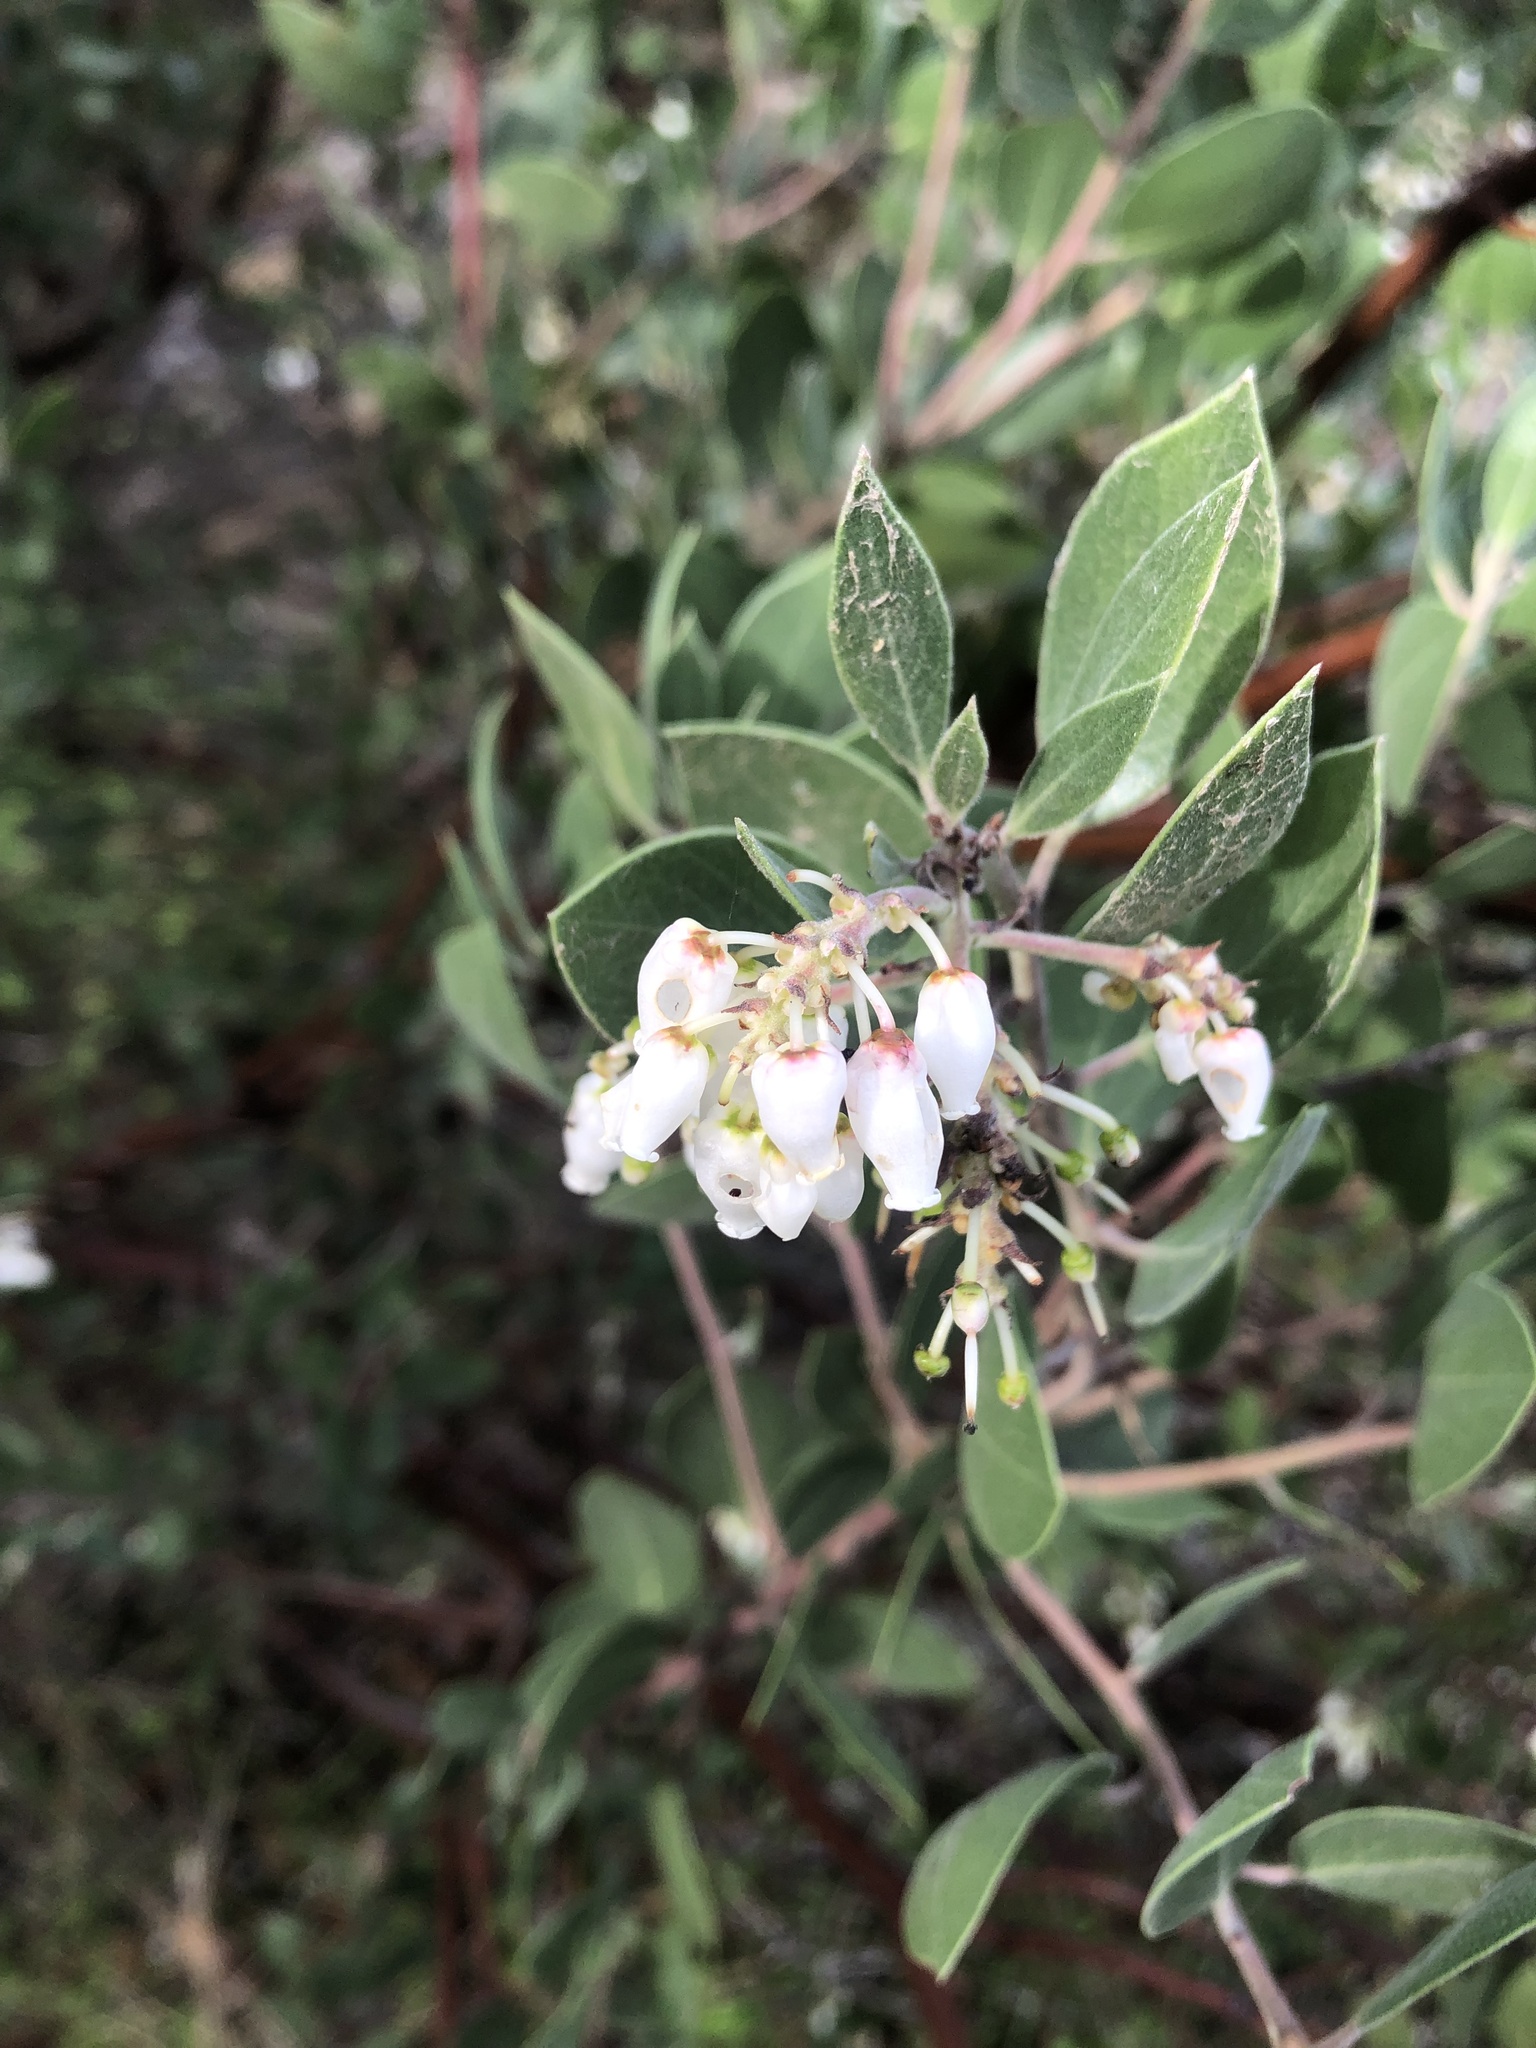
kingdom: Plantae
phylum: Tracheophyta
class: Magnoliopsida
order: Ericales
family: Ericaceae
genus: Arctostaphylos
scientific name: Arctostaphylos manzanita
